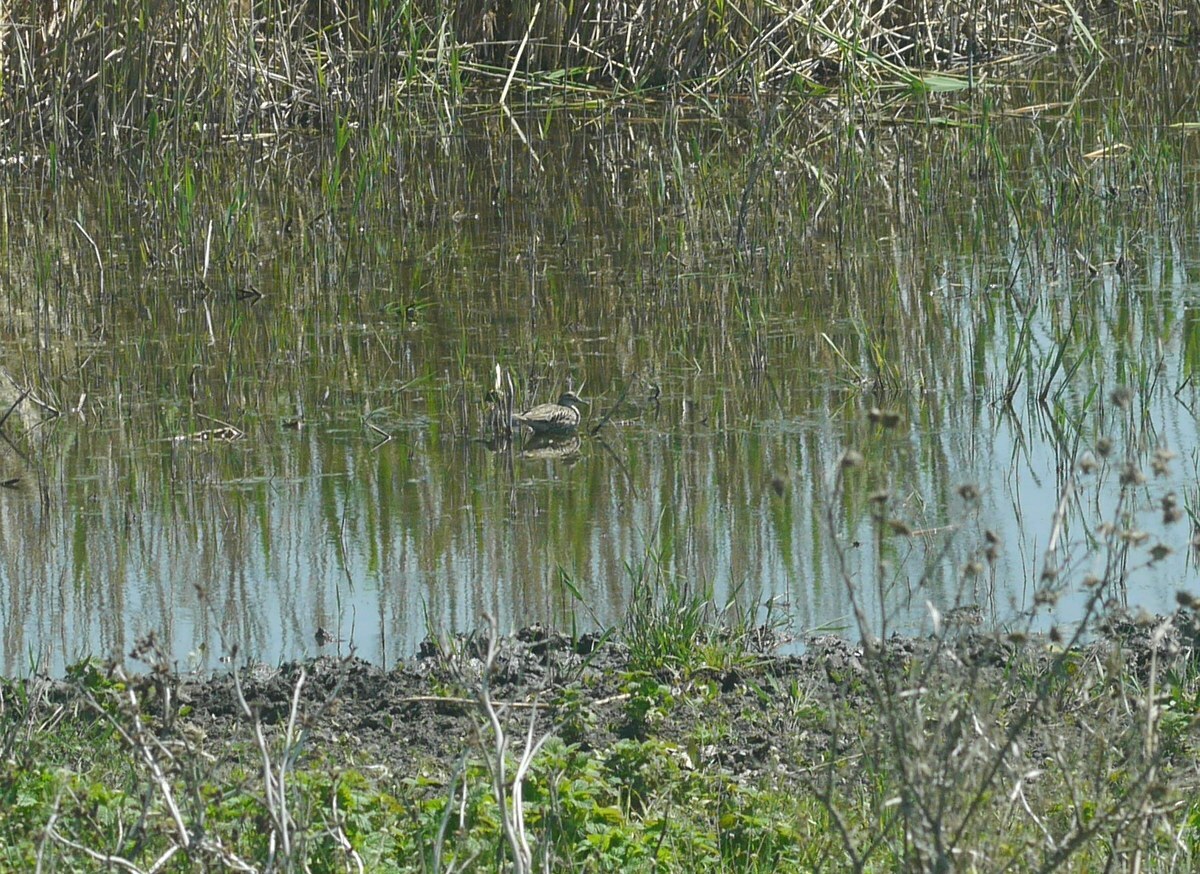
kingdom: Animalia
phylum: Chordata
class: Aves
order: Anseriformes
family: Anatidae
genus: Spatula
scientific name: Spatula querquedula
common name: Garganey
